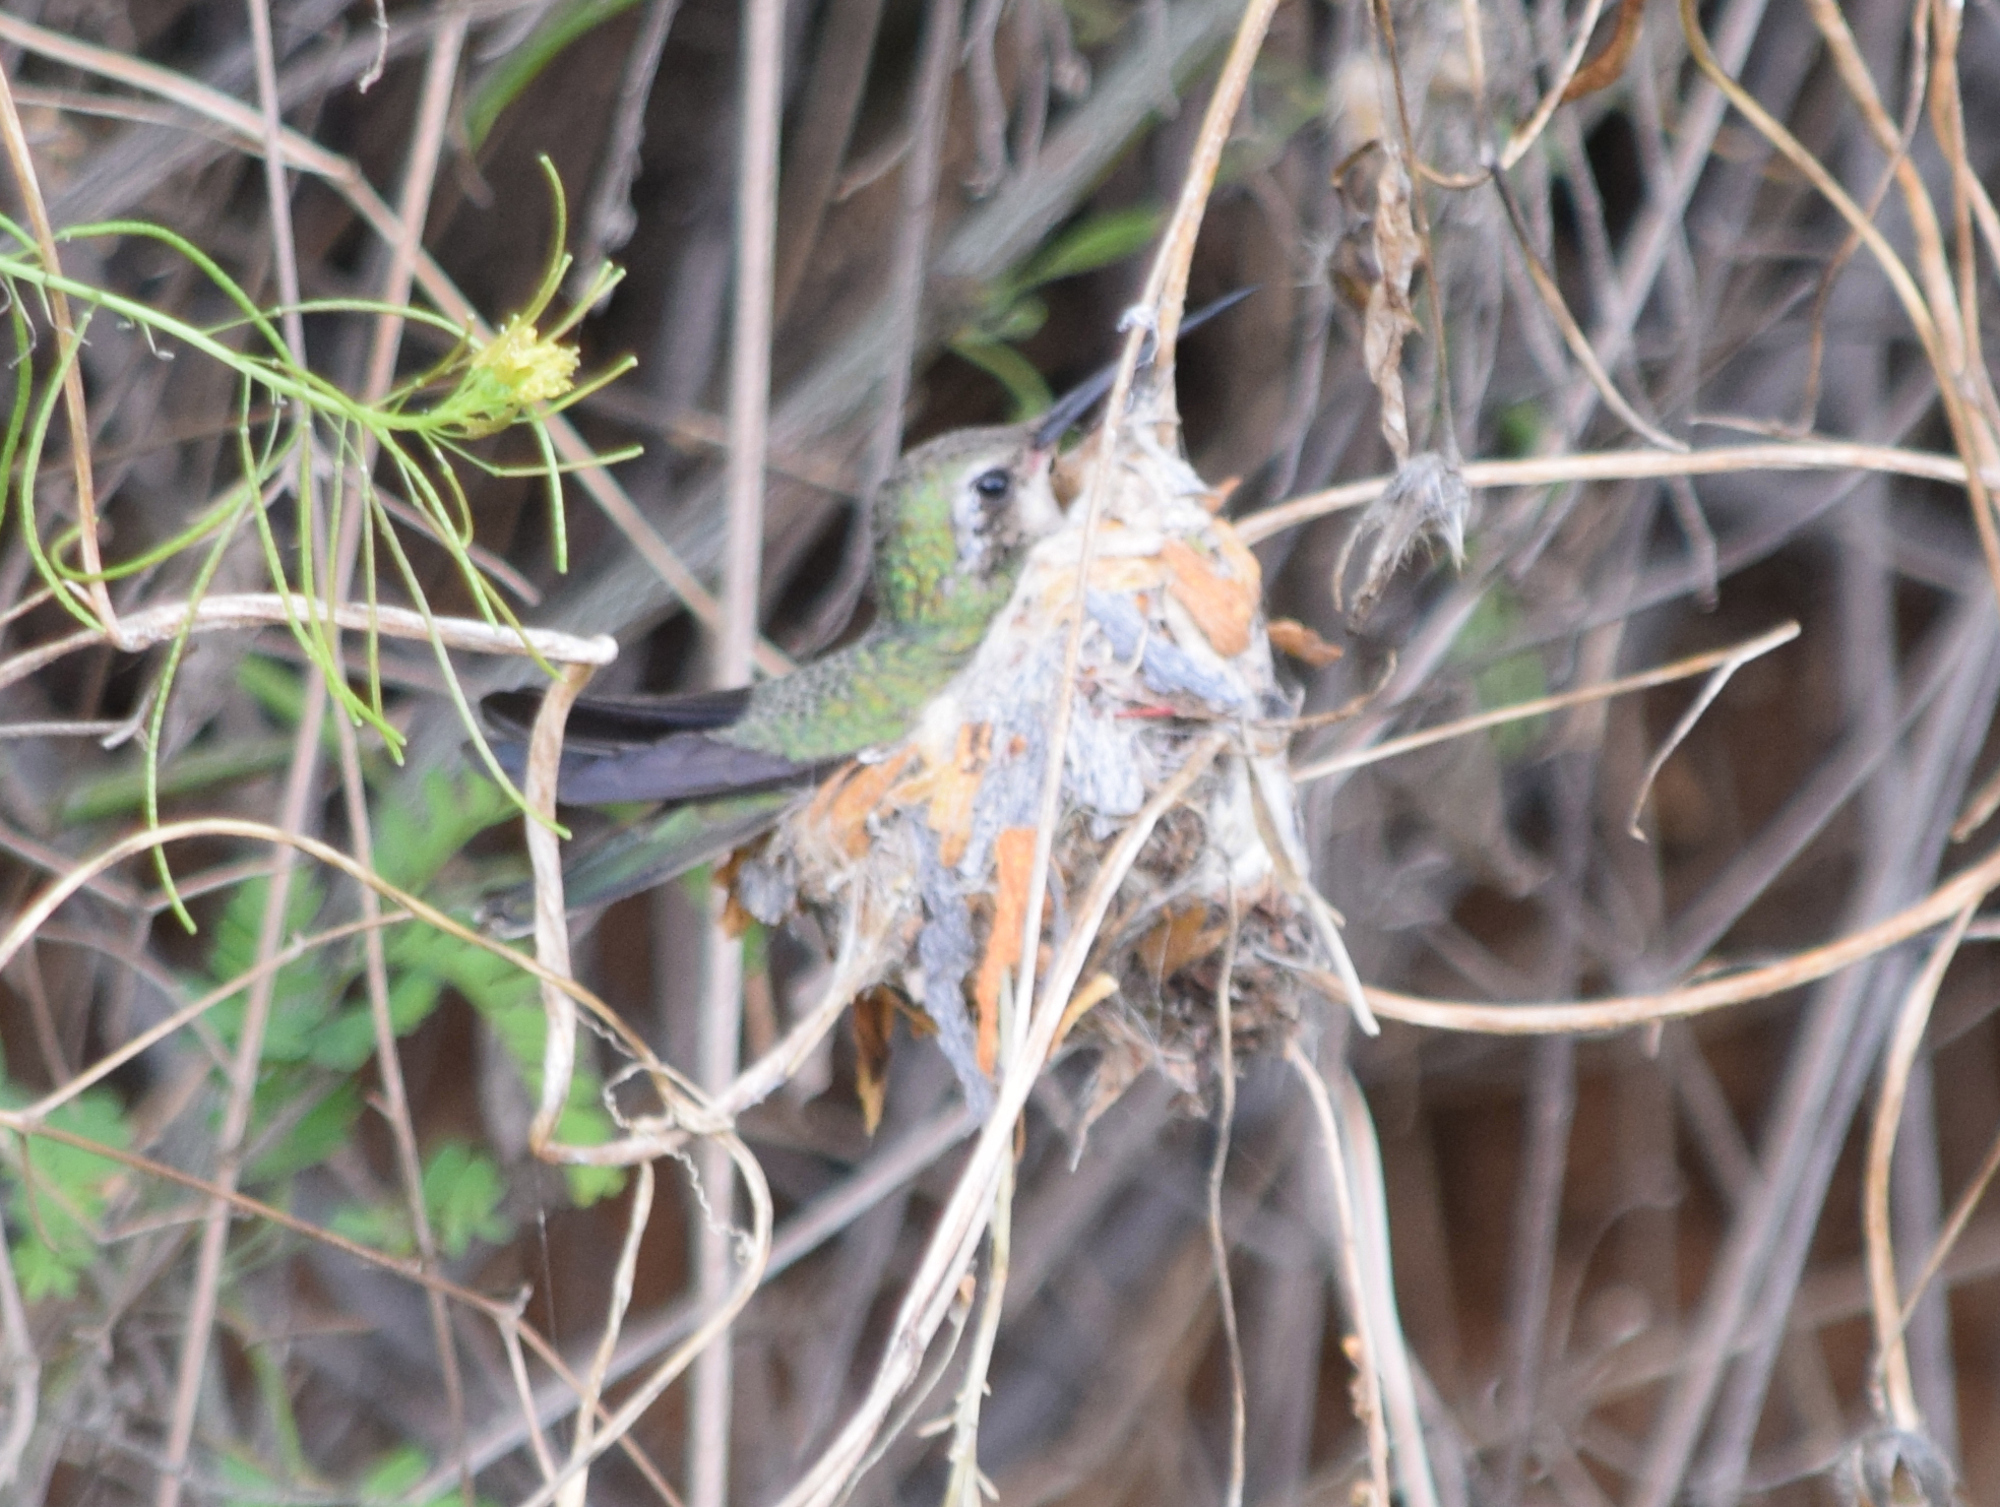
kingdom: Animalia
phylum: Chordata
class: Aves
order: Apodiformes
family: Trochilidae
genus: Cynanthus
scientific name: Cynanthus latirostris
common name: Broad-billed hummingbird
